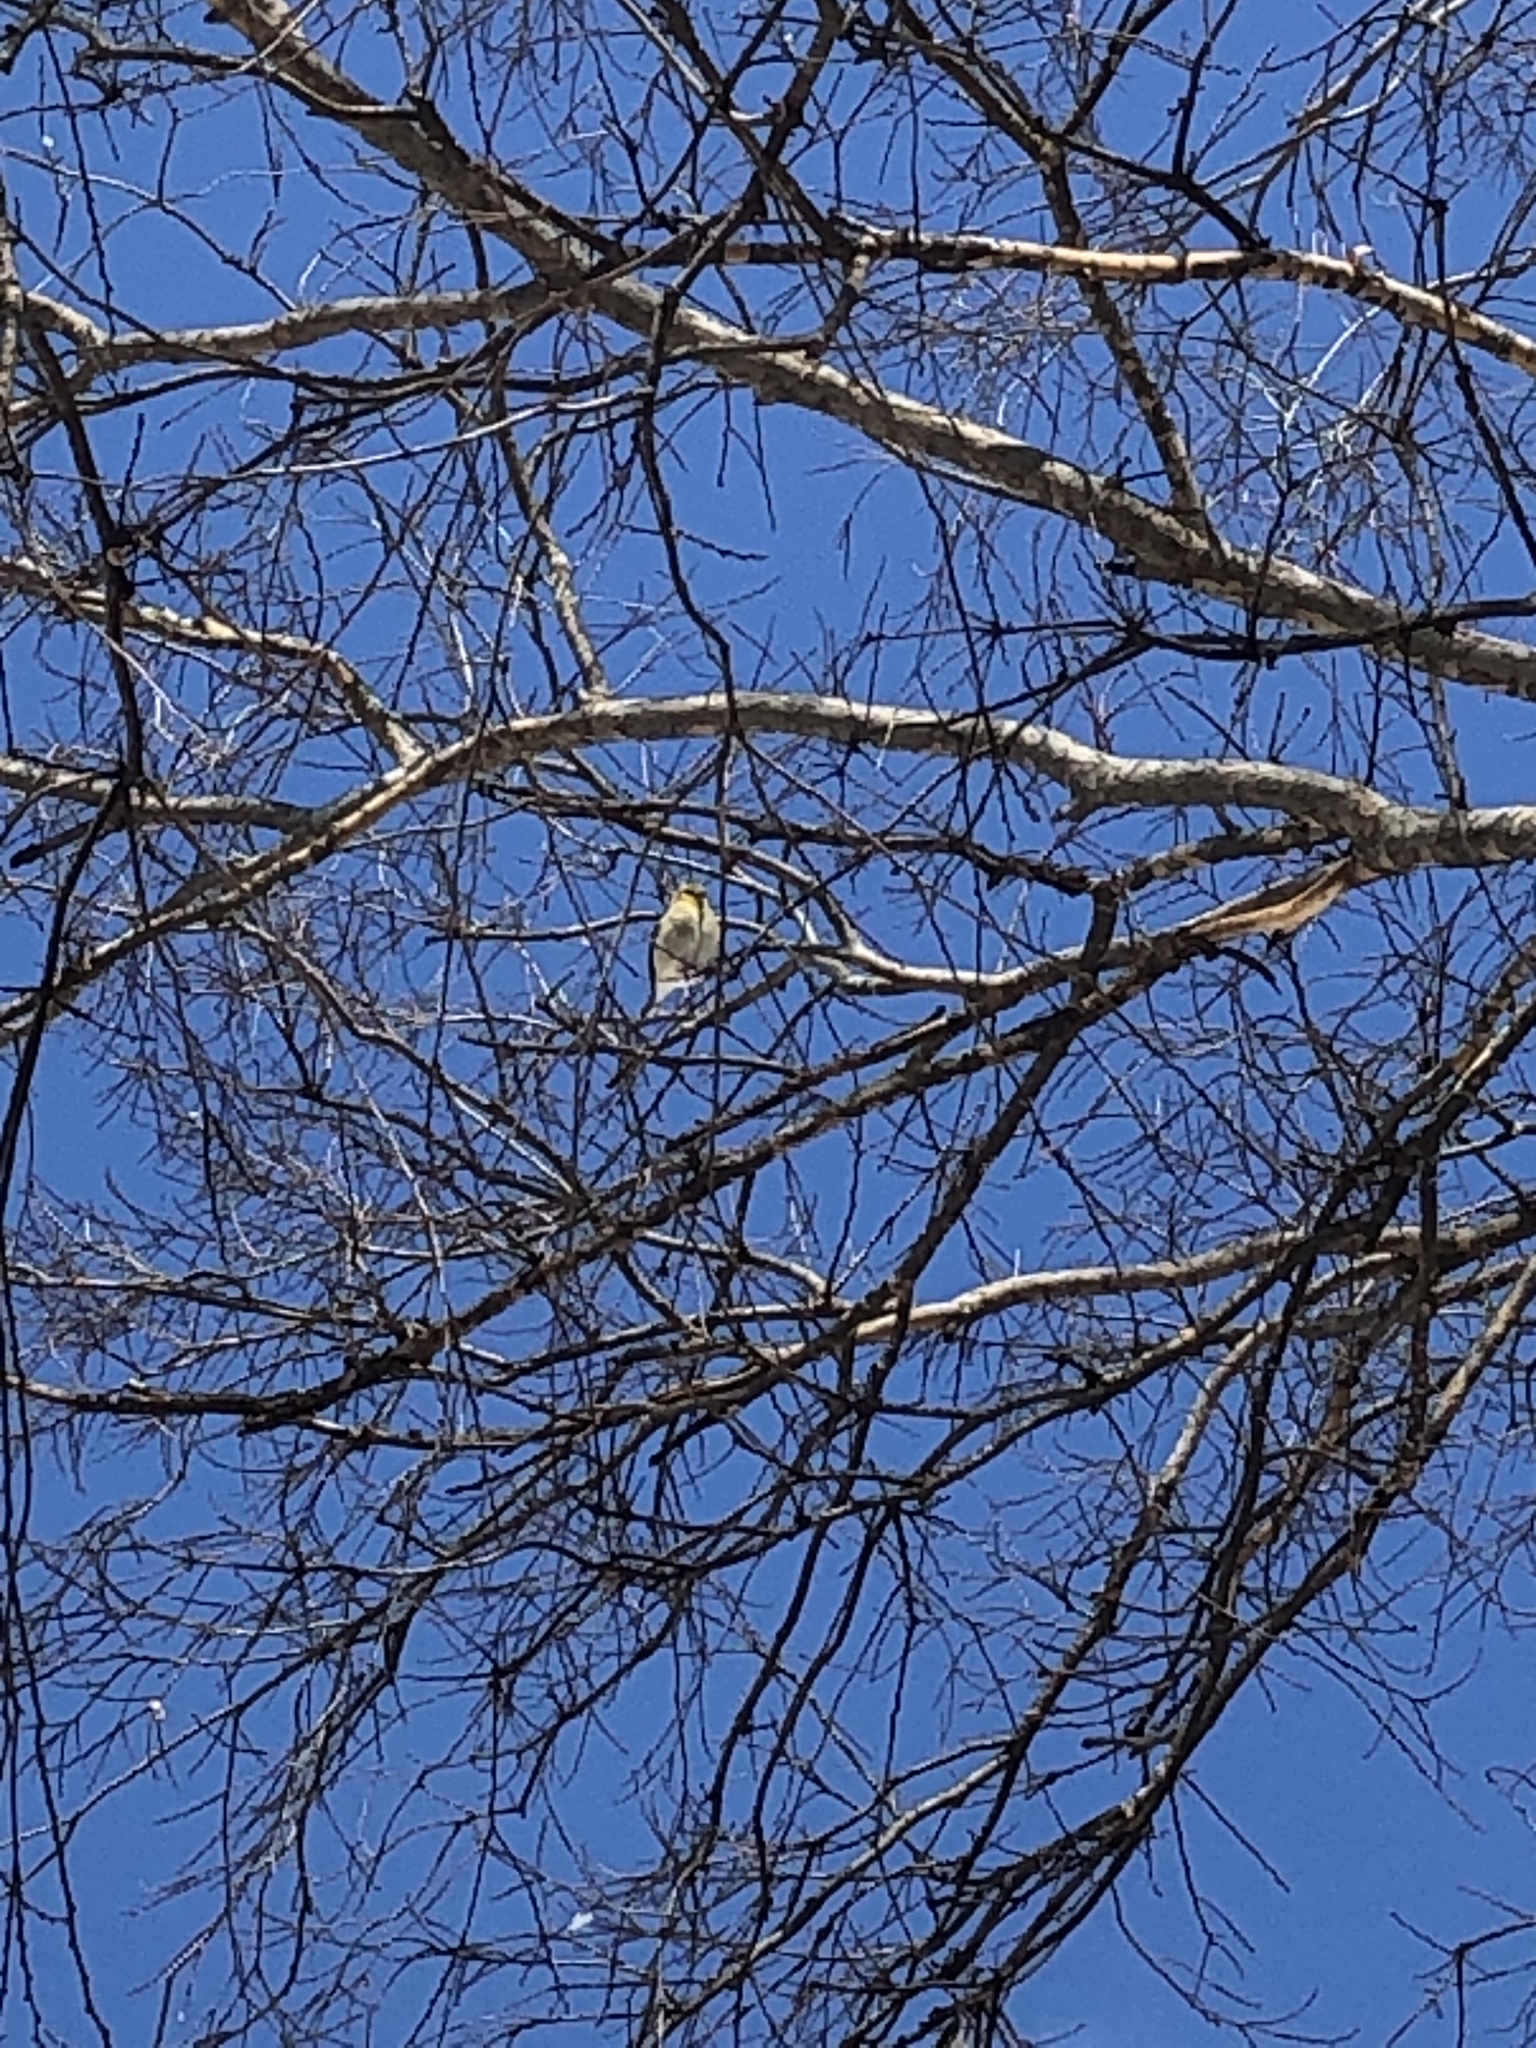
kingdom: Animalia
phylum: Chordata
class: Aves
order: Passeriformes
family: Fringillidae
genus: Spinus
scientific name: Spinus tristis
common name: American goldfinch
